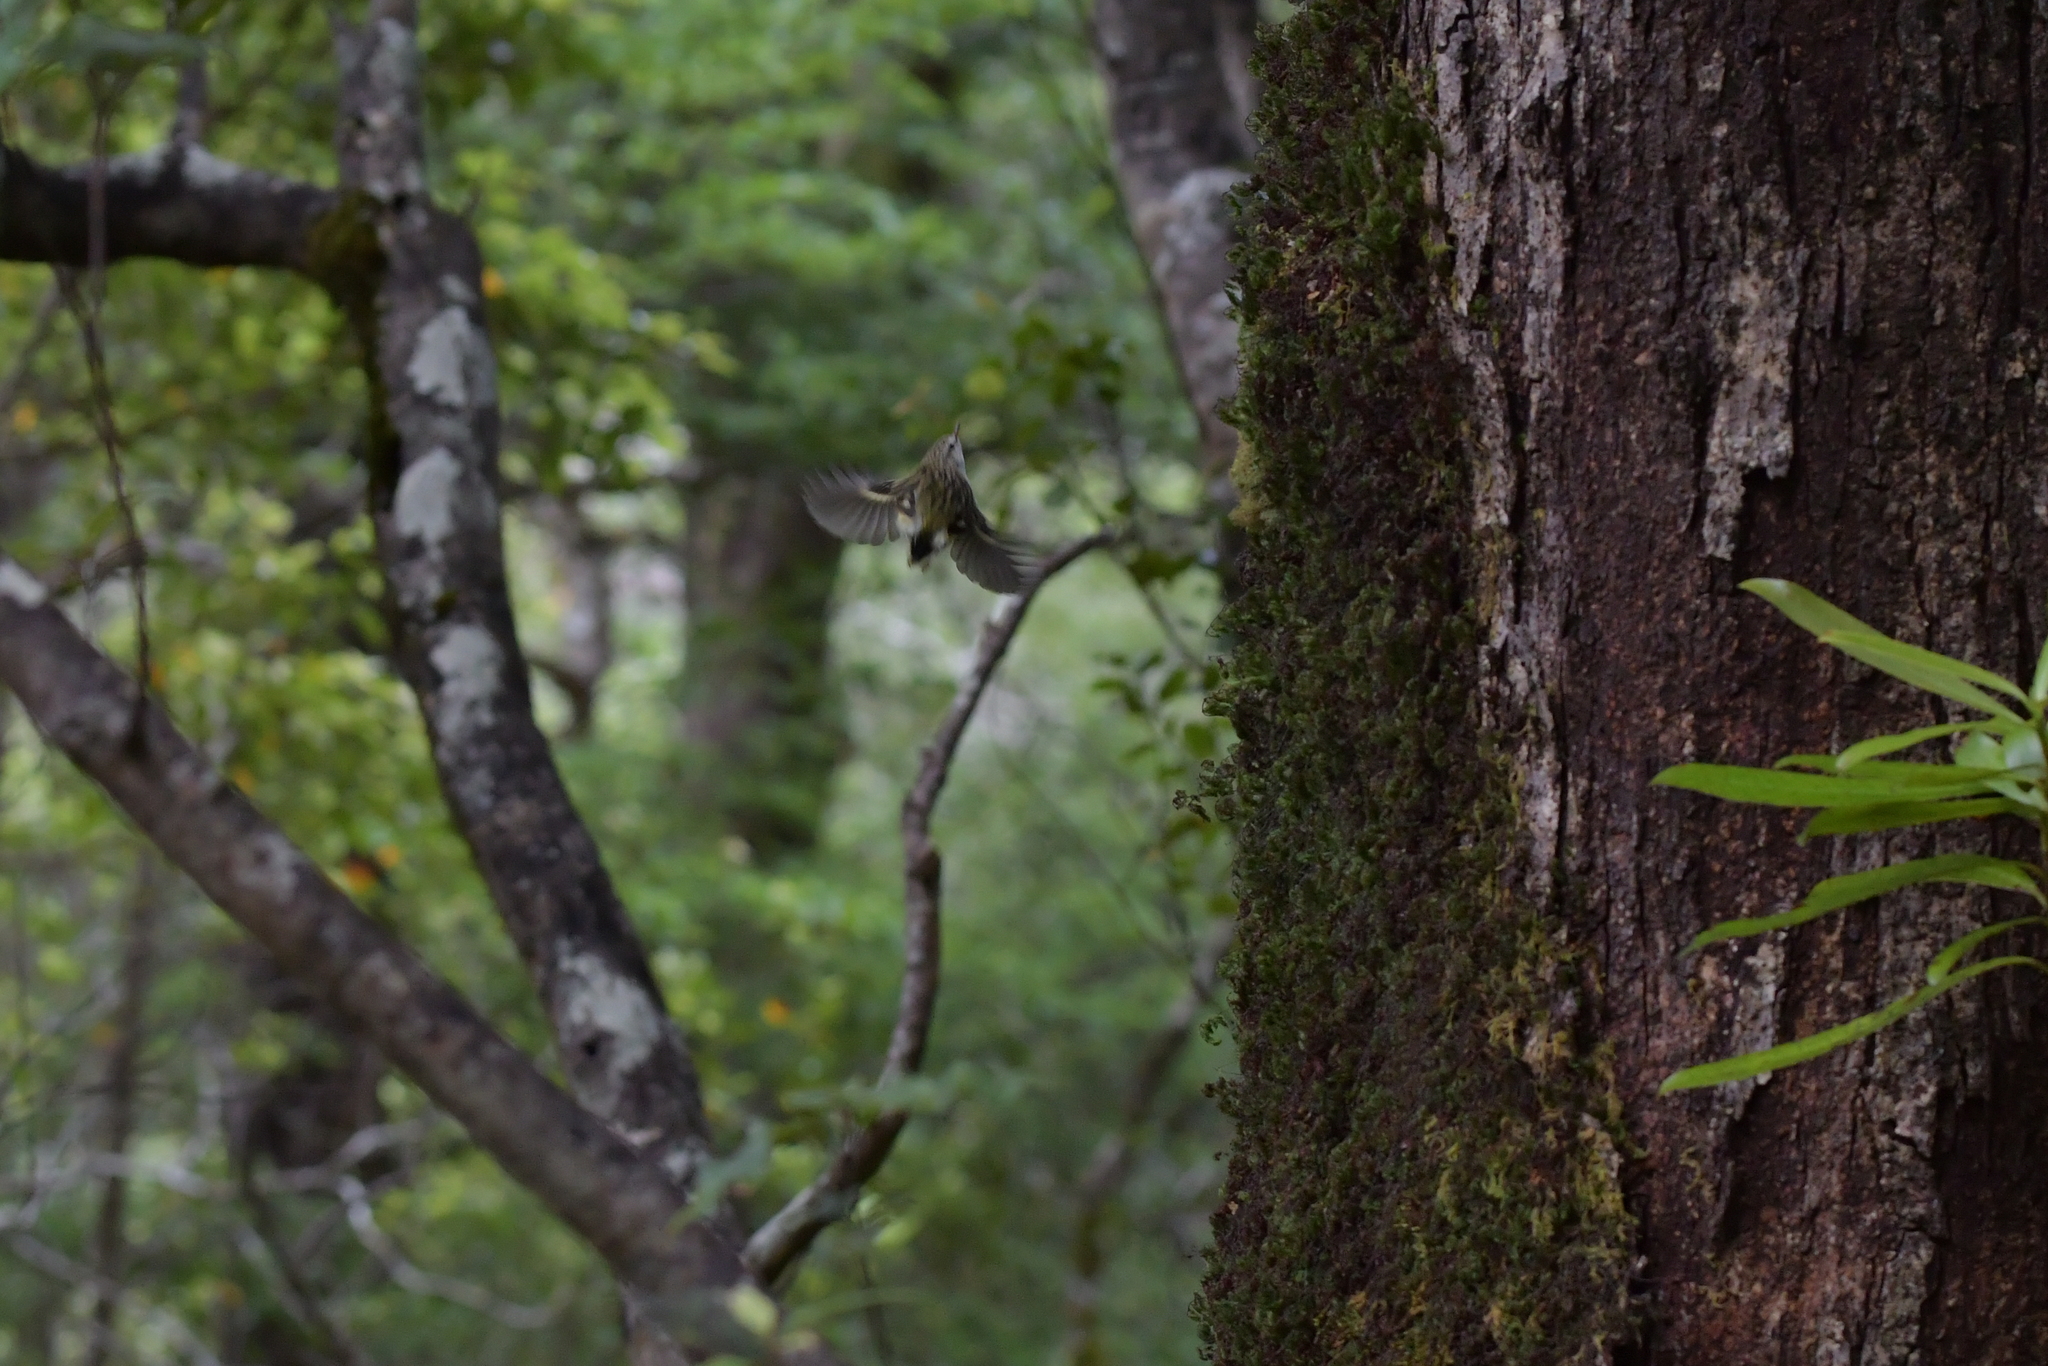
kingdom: Animalia
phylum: Chordata
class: Aves
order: Passeriformes
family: Acanthisittidae
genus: Acanthisitta
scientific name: Acanthisitta chloris
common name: Rifleman
